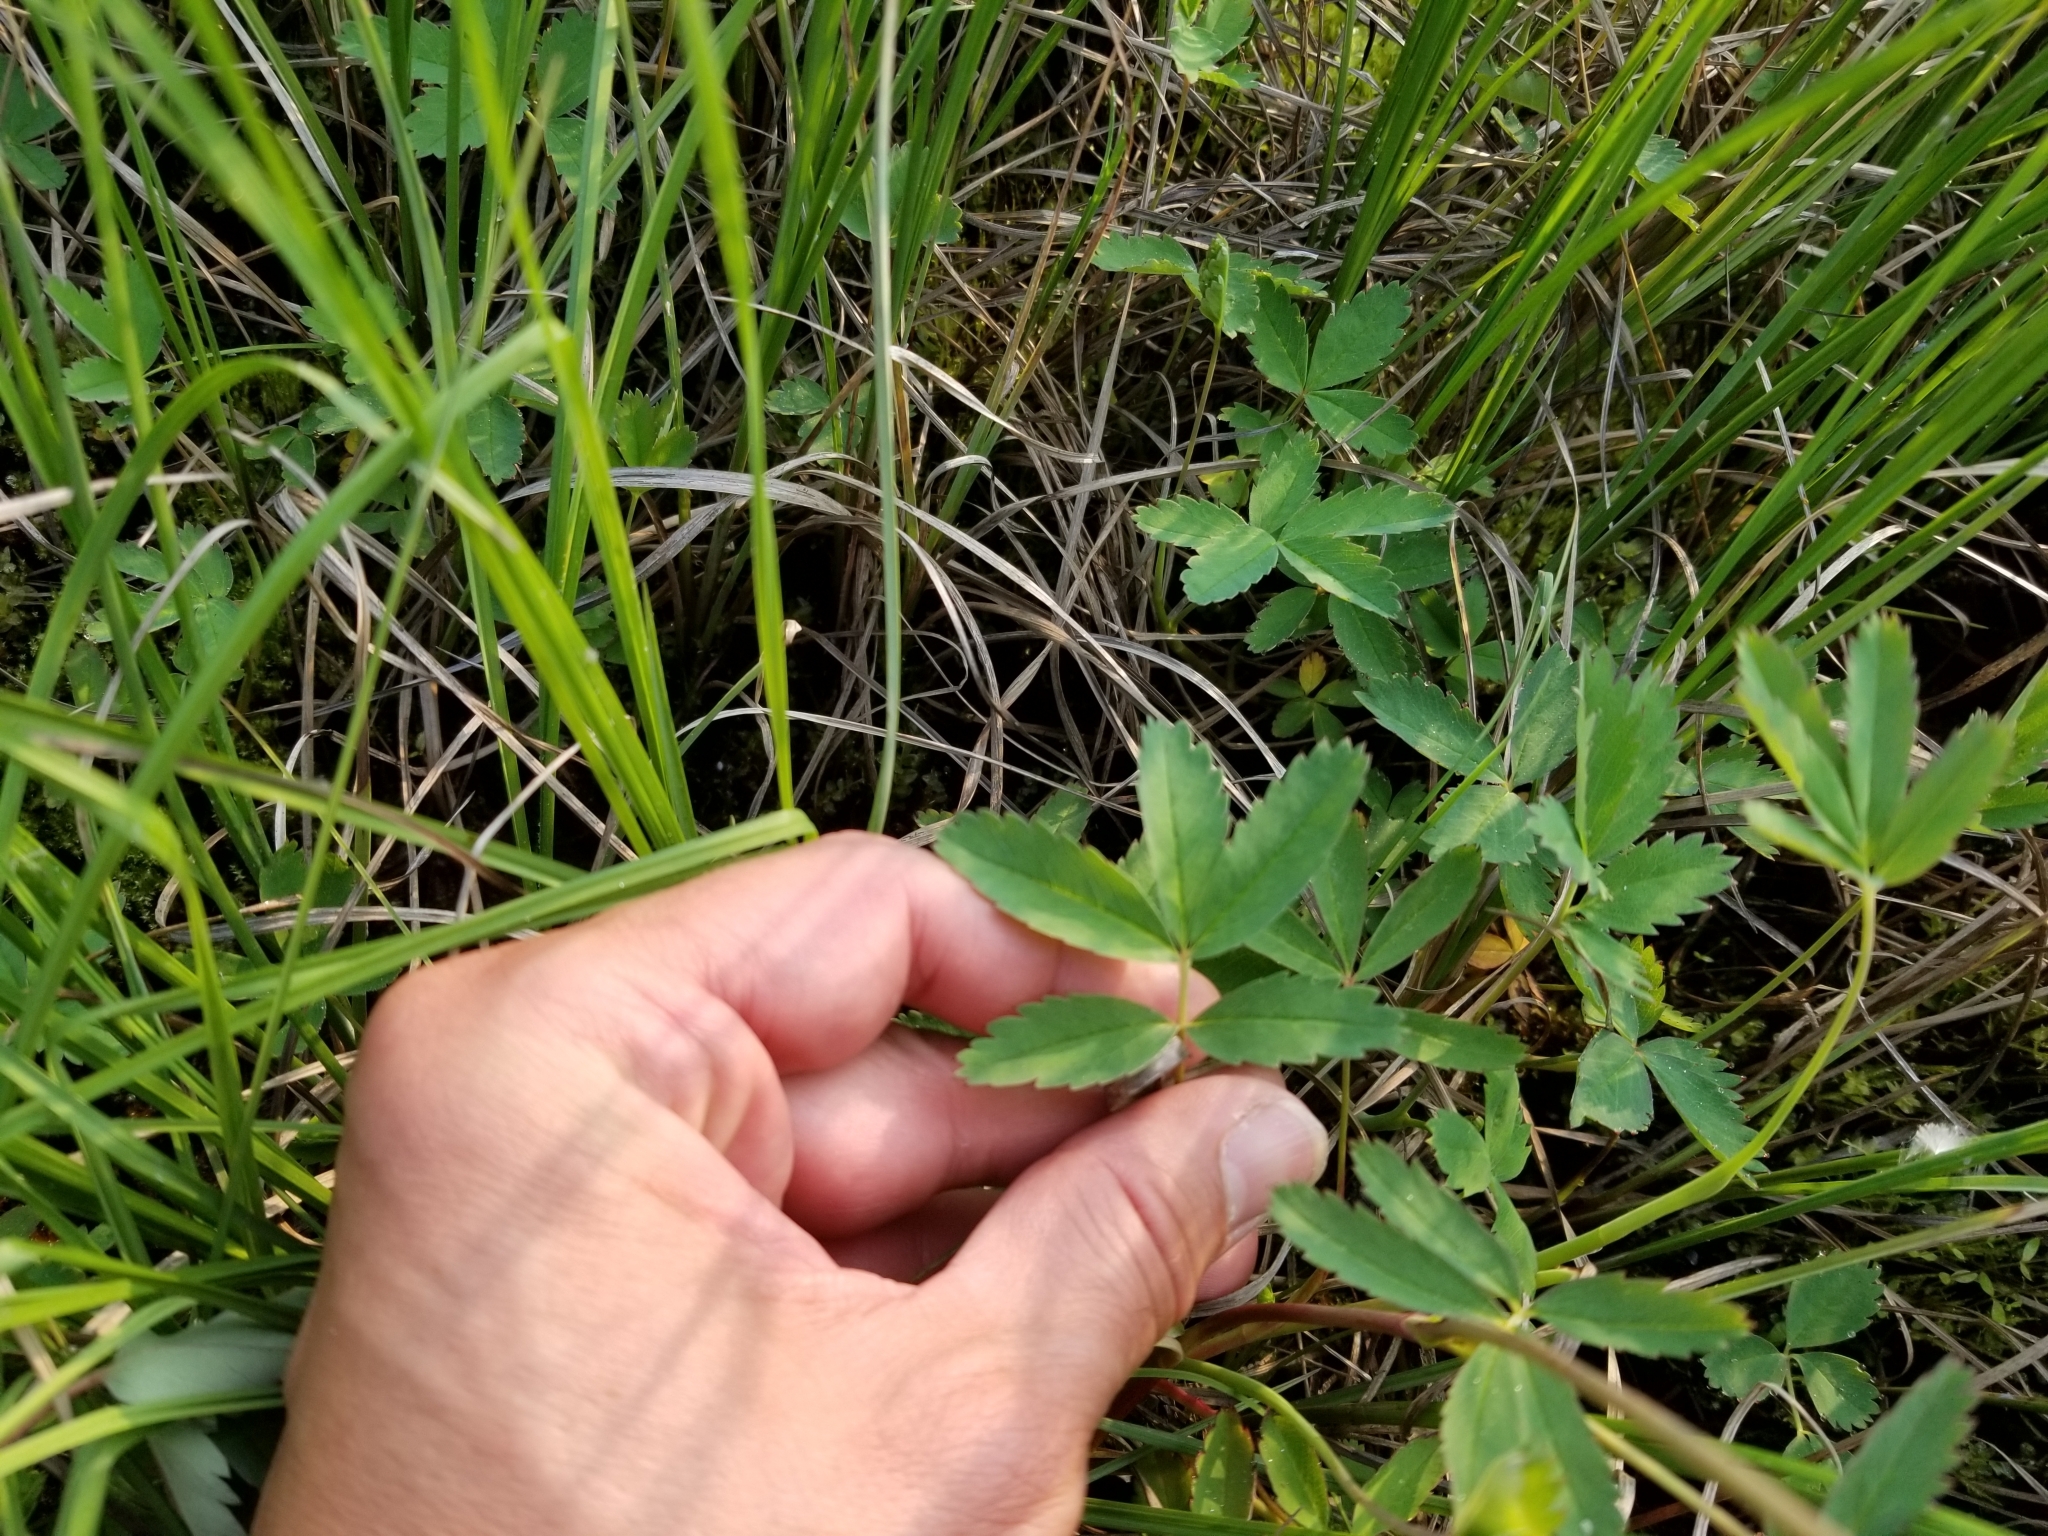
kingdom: Plantae
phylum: Tracheophyta
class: Magnoliopsida
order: Rosales
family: Rosaceae
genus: Comarum
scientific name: Comarum palustre
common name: Marsh cinquefoil
